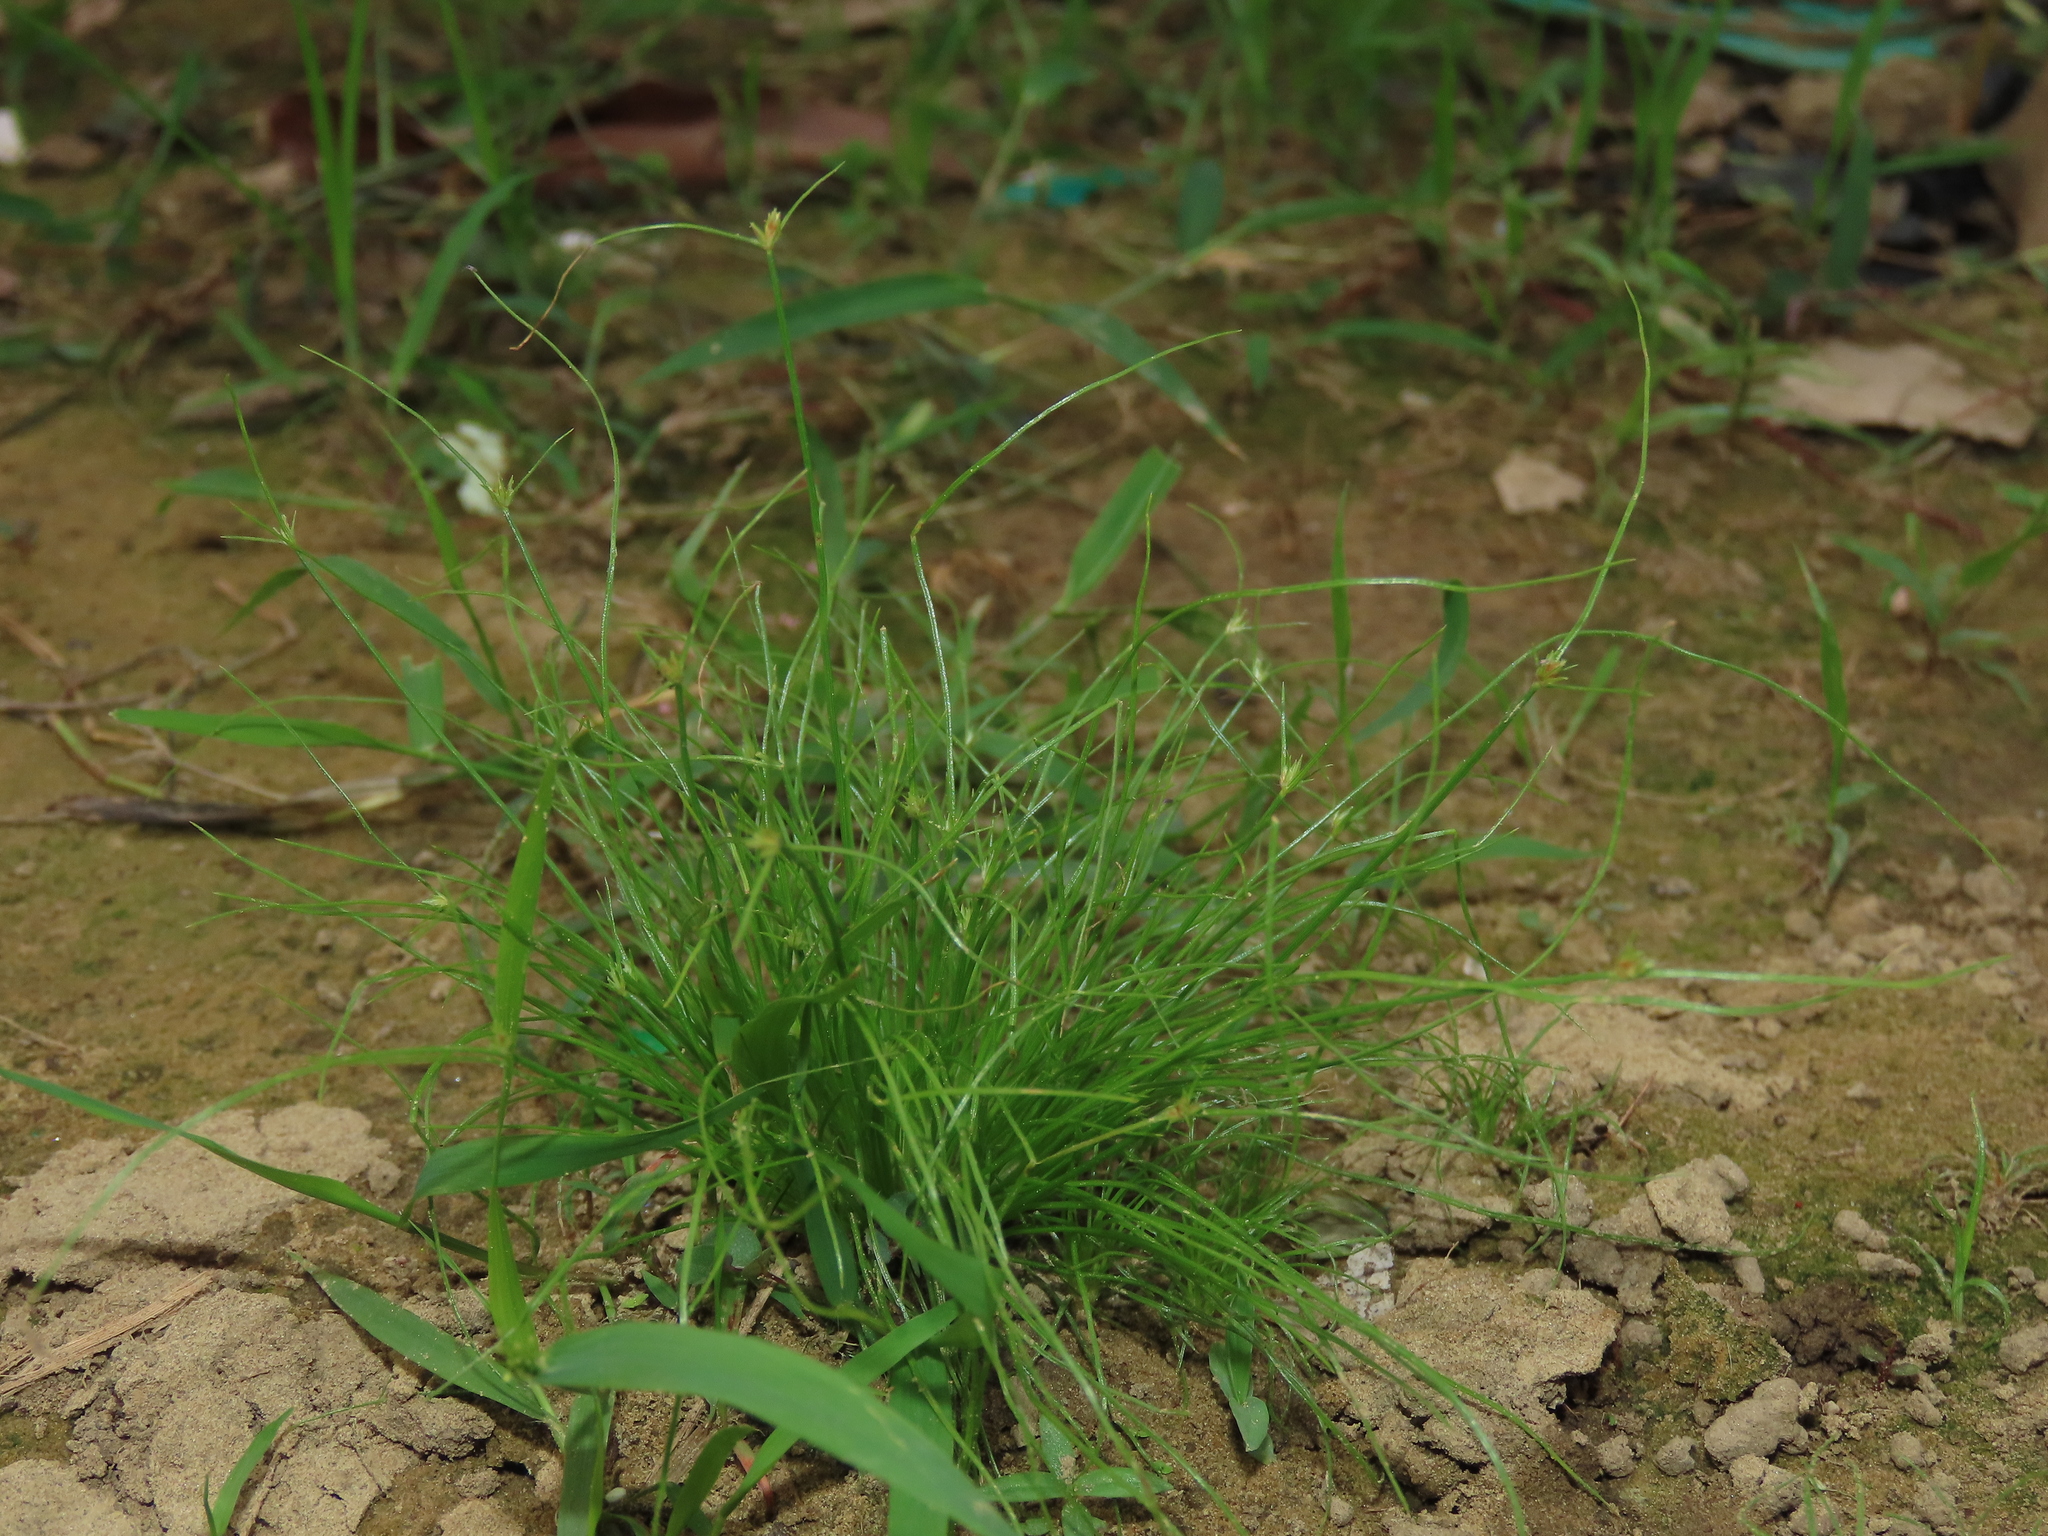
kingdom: Plantae
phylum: Tracheophyta
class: Liliopsida
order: Poales
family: Cyperaceae
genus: Bulbostylis
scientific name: Bulbostylis barbata
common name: Watergrass
